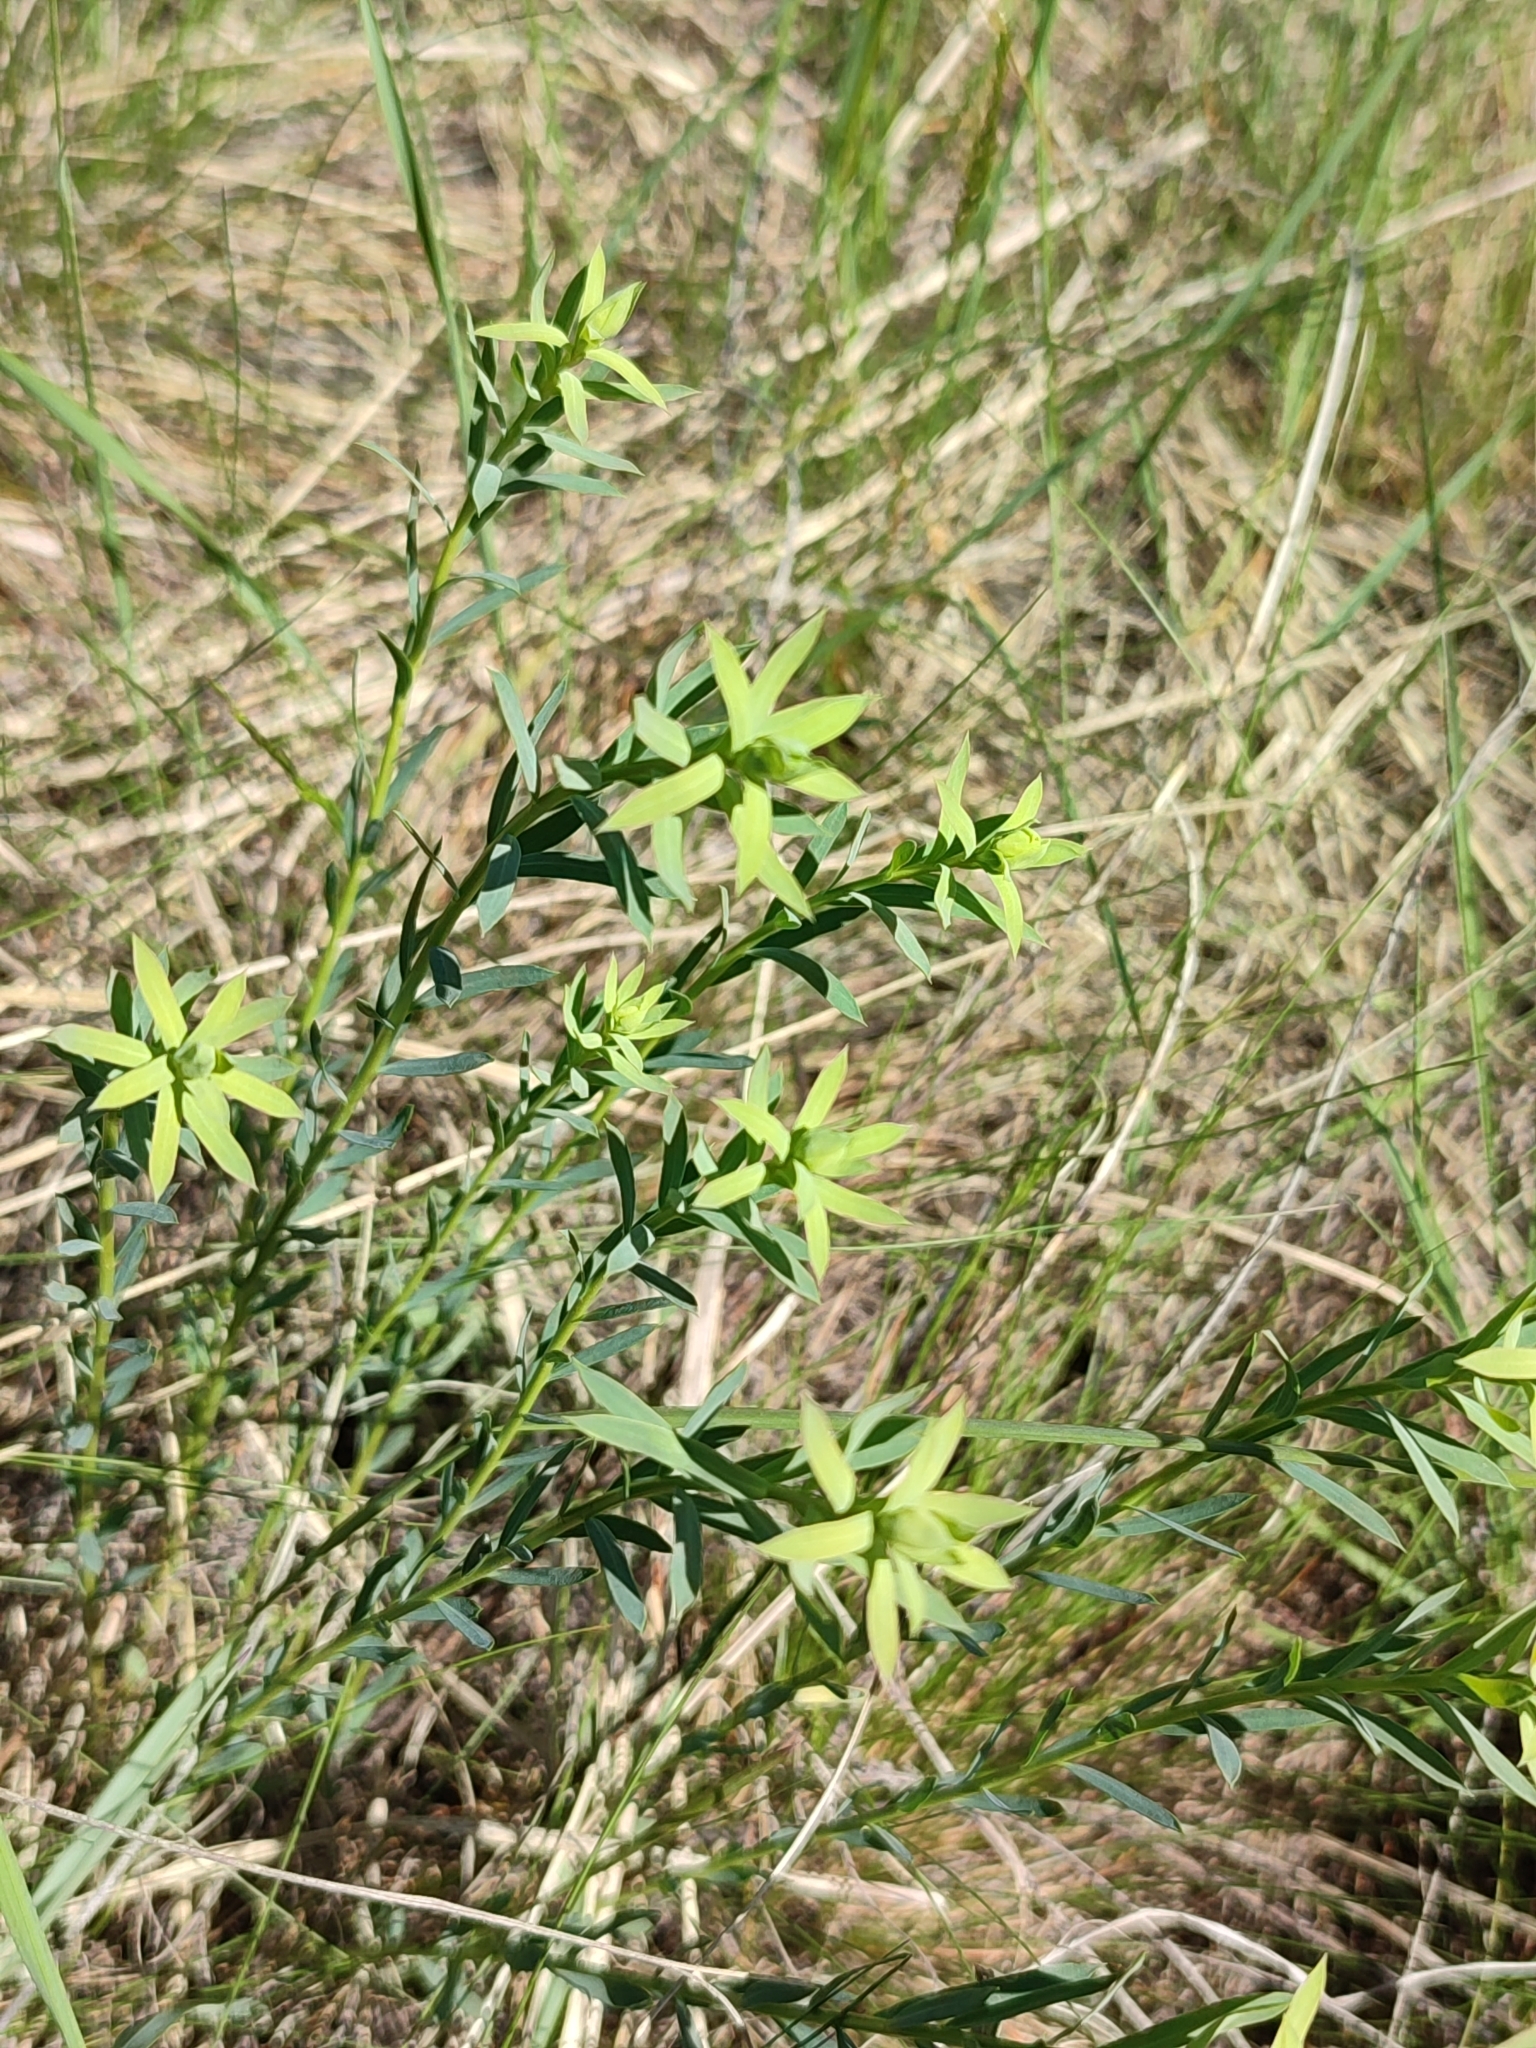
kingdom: Plantae
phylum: Tracheophyta
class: Magnoliopsida
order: Malpighiales
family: Euphorbiaceae
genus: Euphorbia
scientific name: Euphorbia seguieriana
